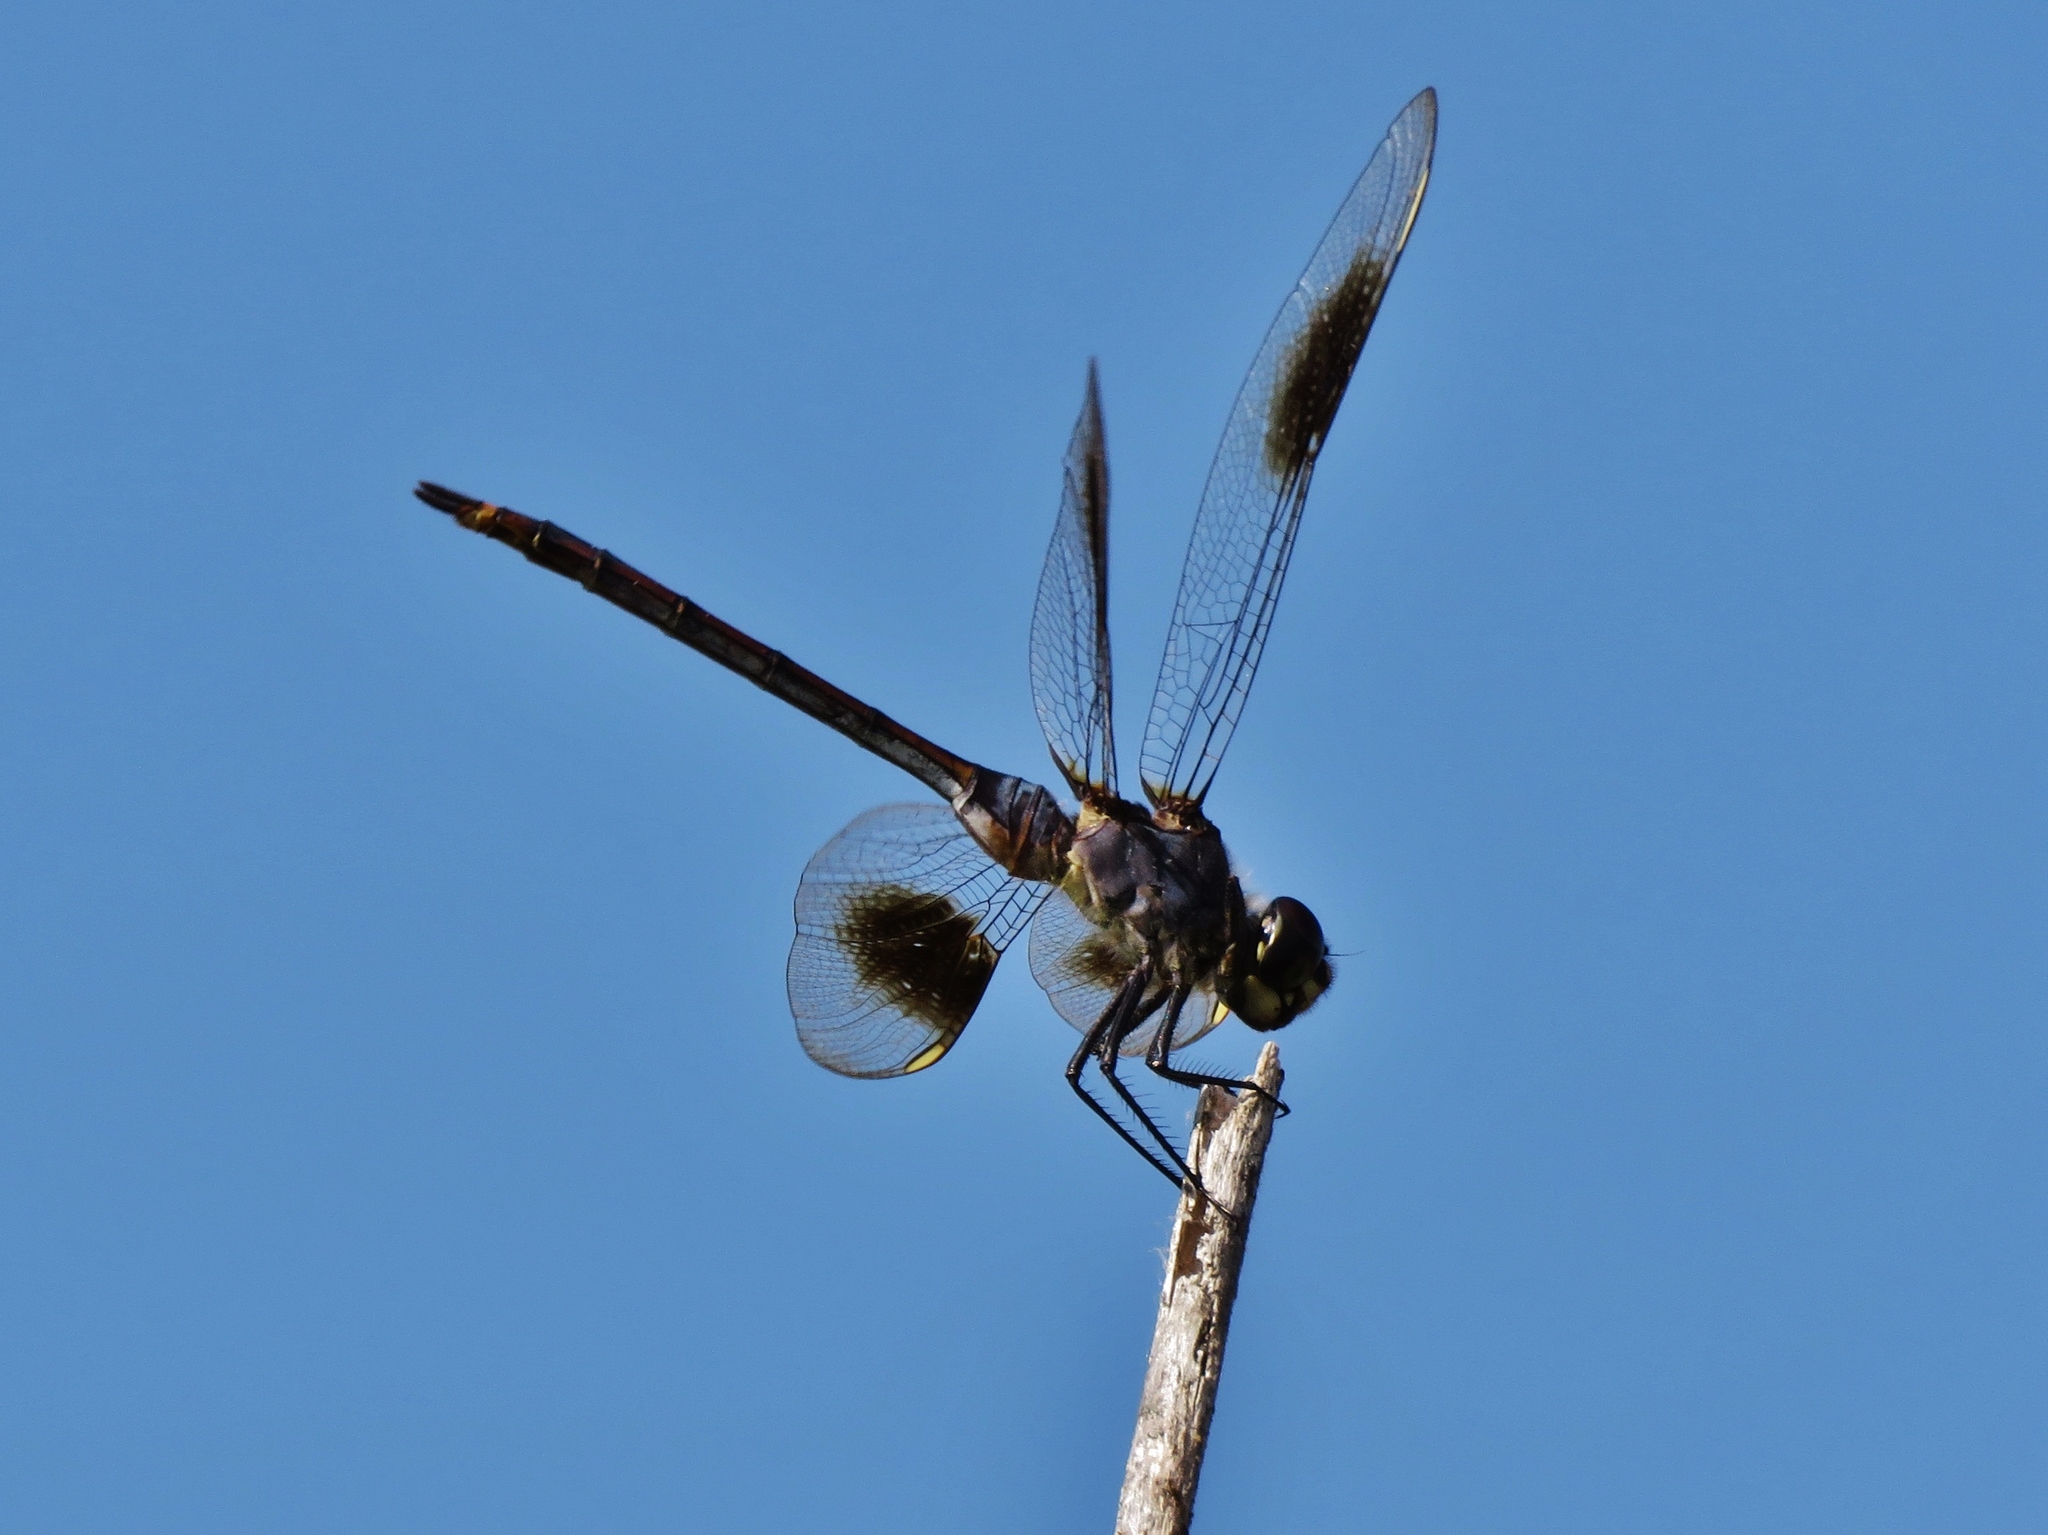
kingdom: Animalia
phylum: Arthropoda
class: Insecta
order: Odonata
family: Libellulidae
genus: Brachymesia
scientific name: Brachymesia gravida
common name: Four-spotted pennant
